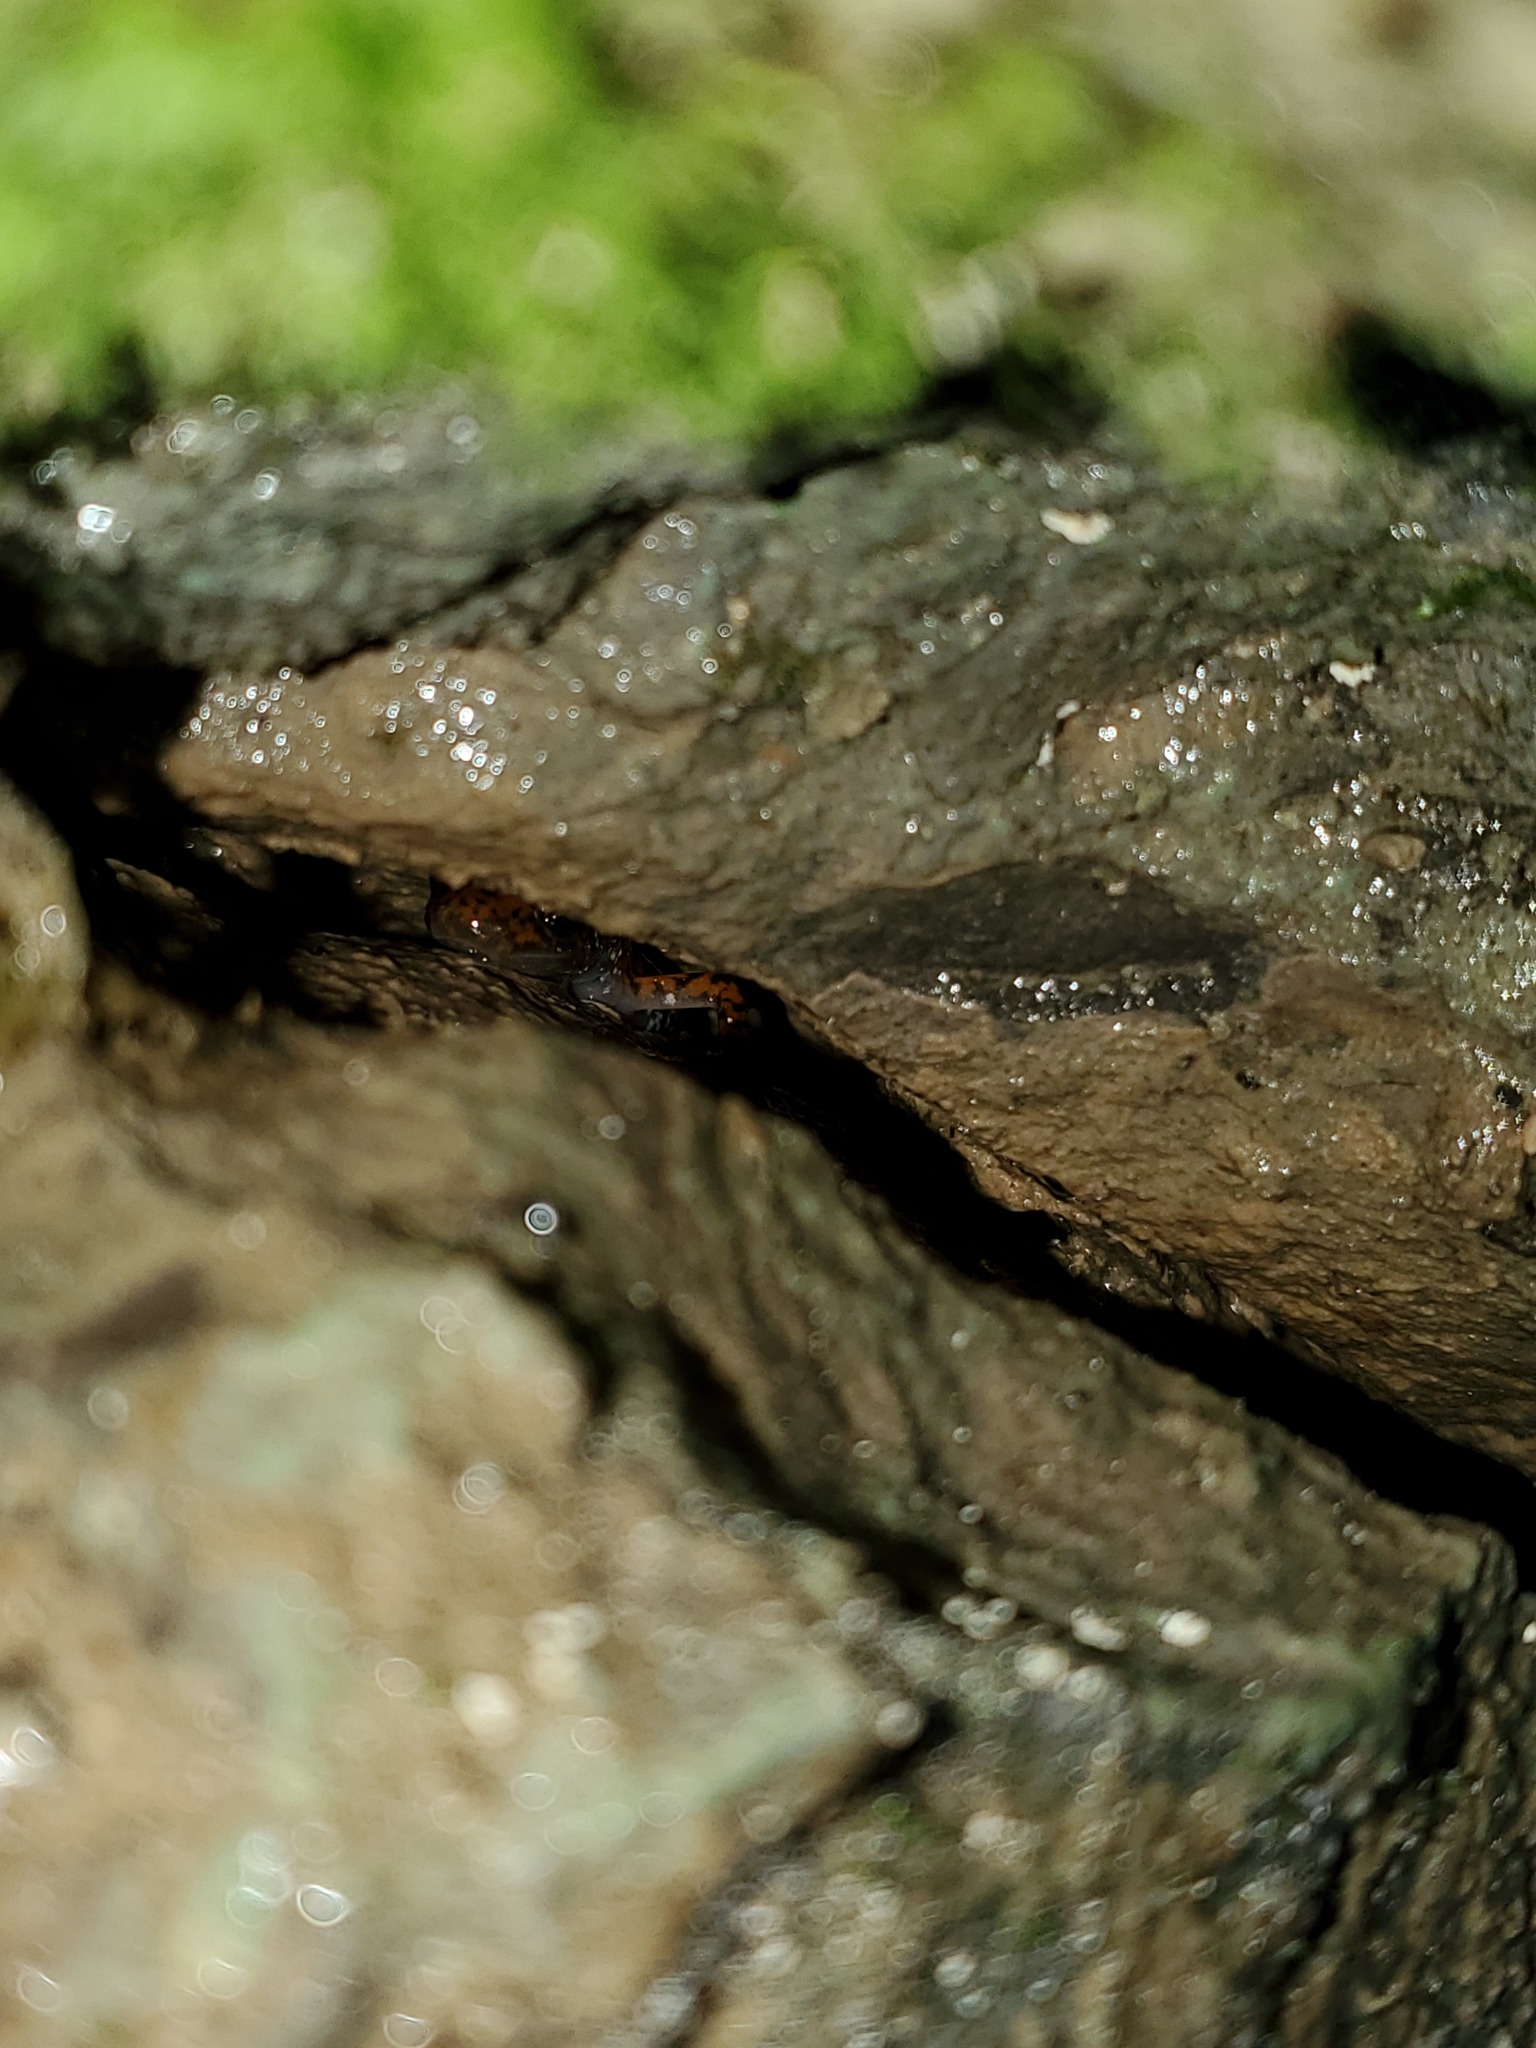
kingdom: Animalia
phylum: Chordata
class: Amphibia
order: Caudata
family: Plethodontidae
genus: Eurycea
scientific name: Eurycea lucifuga
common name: Cave salamander
